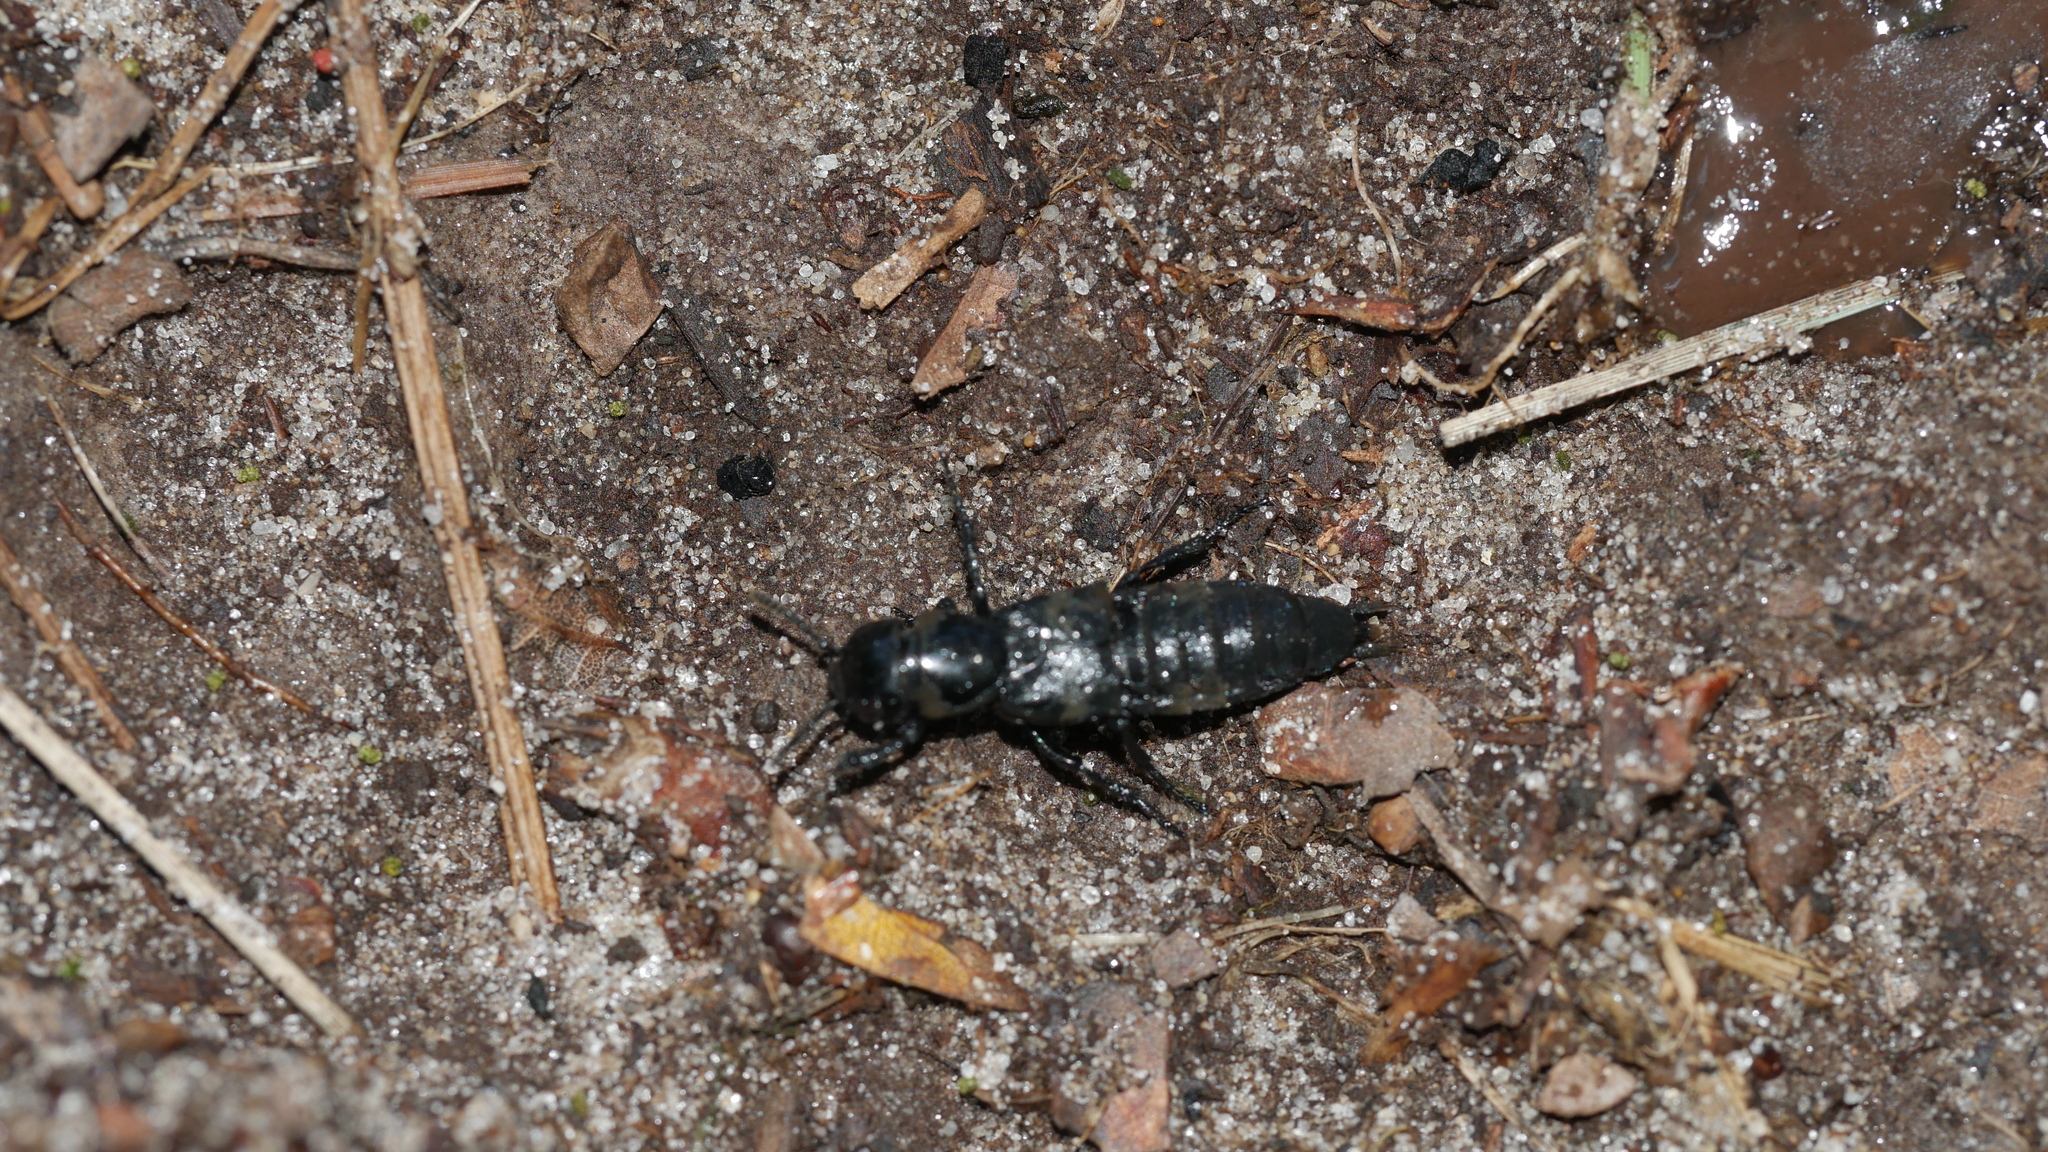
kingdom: Animalia
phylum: Arthropoda
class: Insecta
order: Coleoptera
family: Staphylinidae
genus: Creophilus
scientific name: Creophilus maxillosus
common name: Hairy rove beetle
